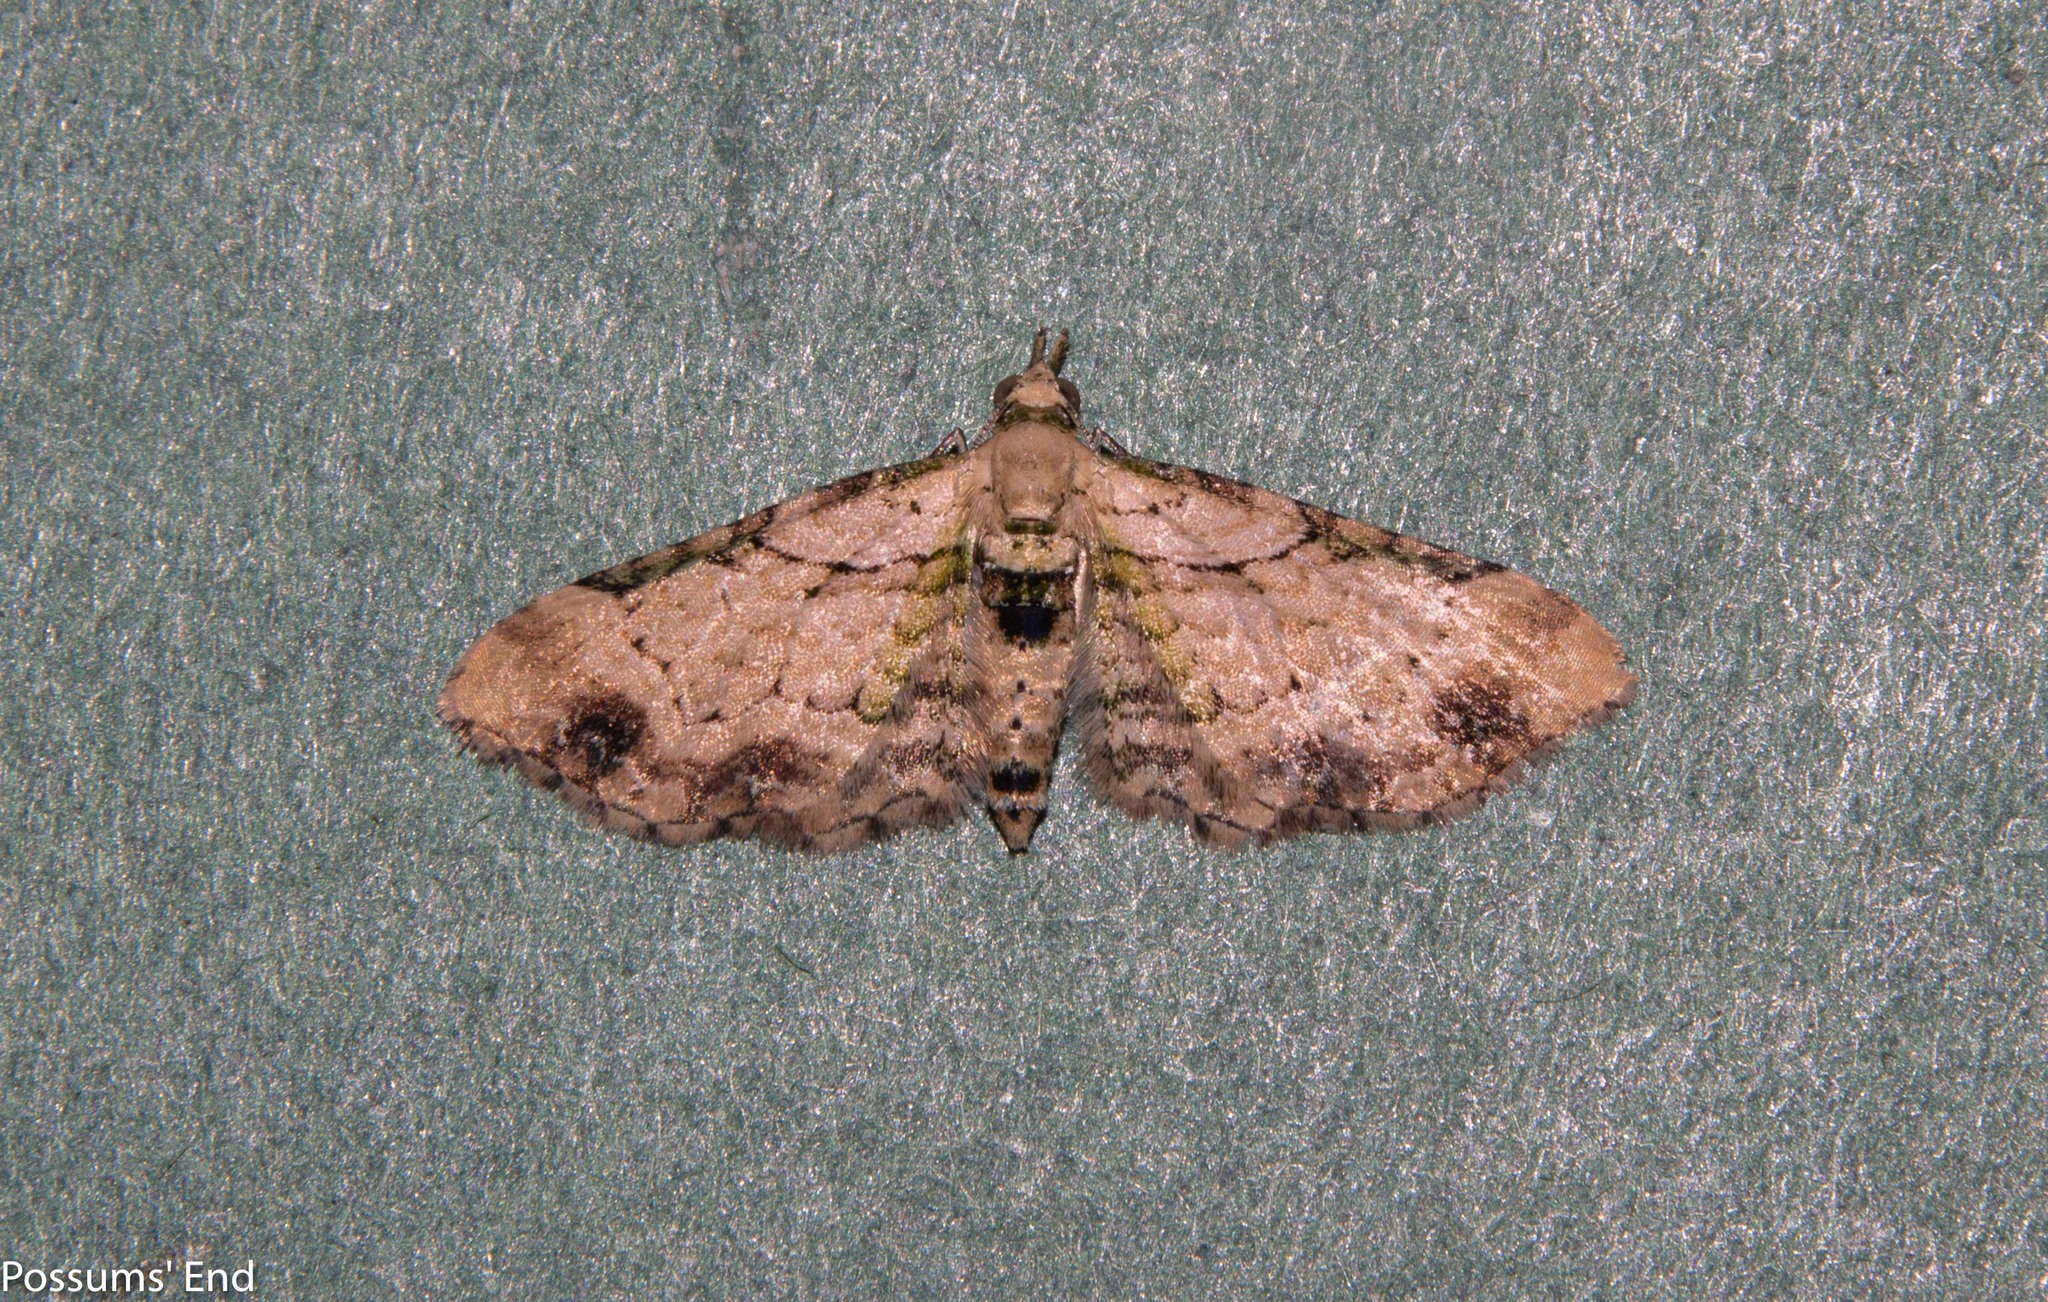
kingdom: Animalia
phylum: Arthropoda
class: Insecta
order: Lepidoptera
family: Geometridae
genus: Chloroclystis
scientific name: Chloroclystis
